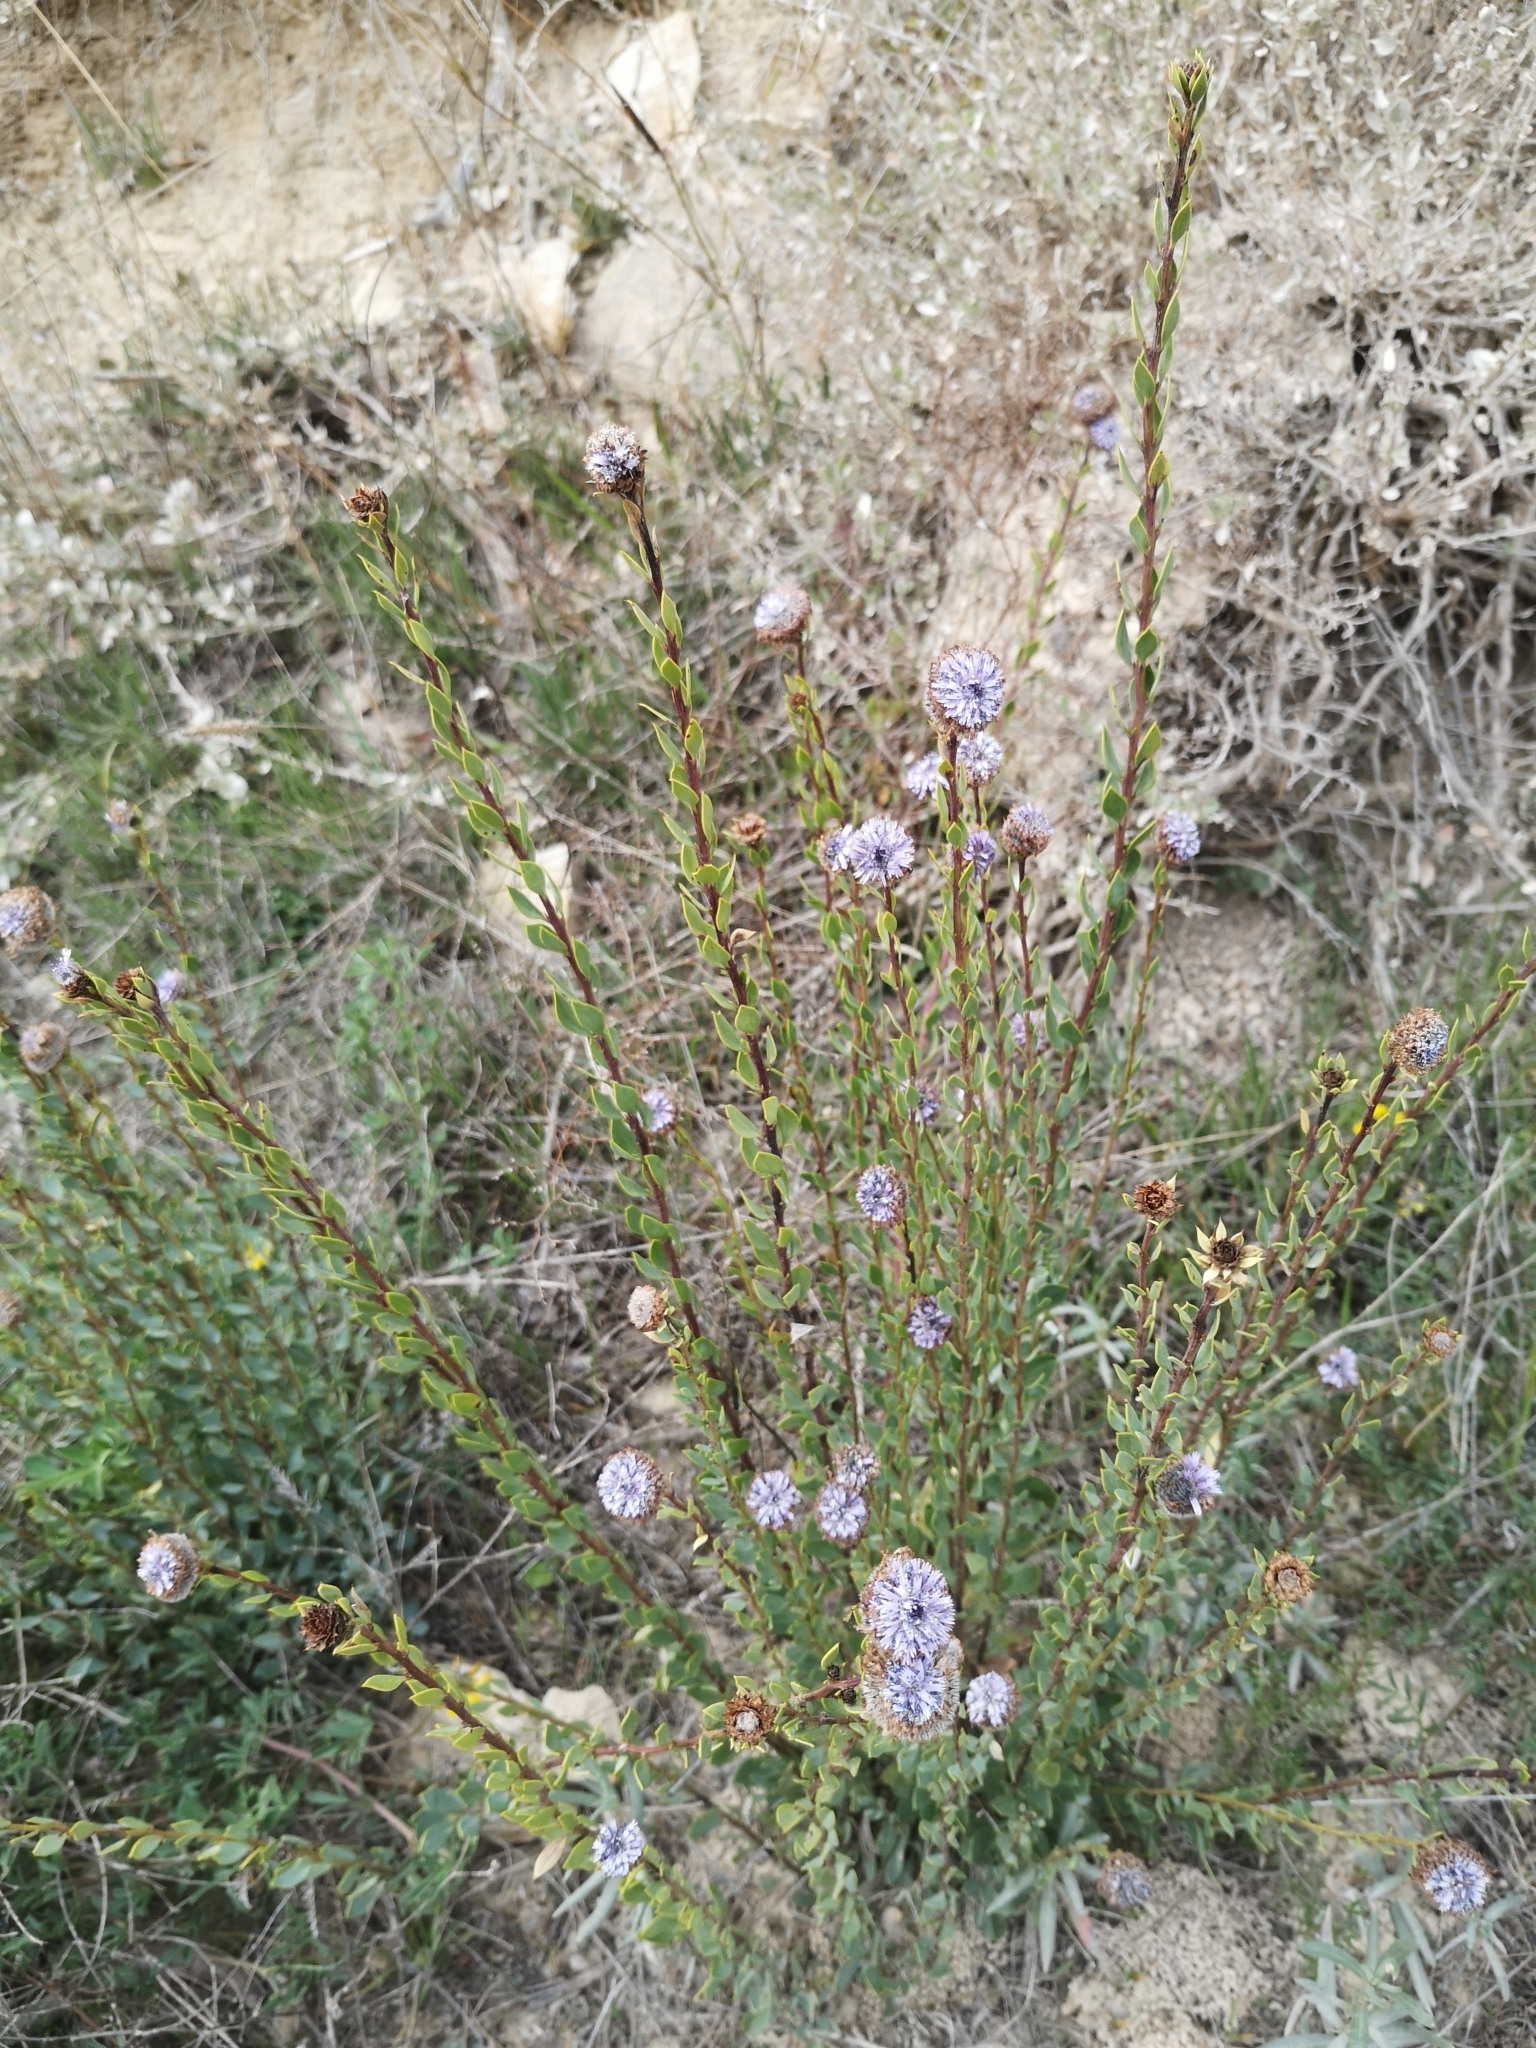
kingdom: Plantae
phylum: Tracheophyta
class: Magnoliopsida
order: Lamiales
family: Plantaginaceae
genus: Globularia
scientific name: Globularia alypum
